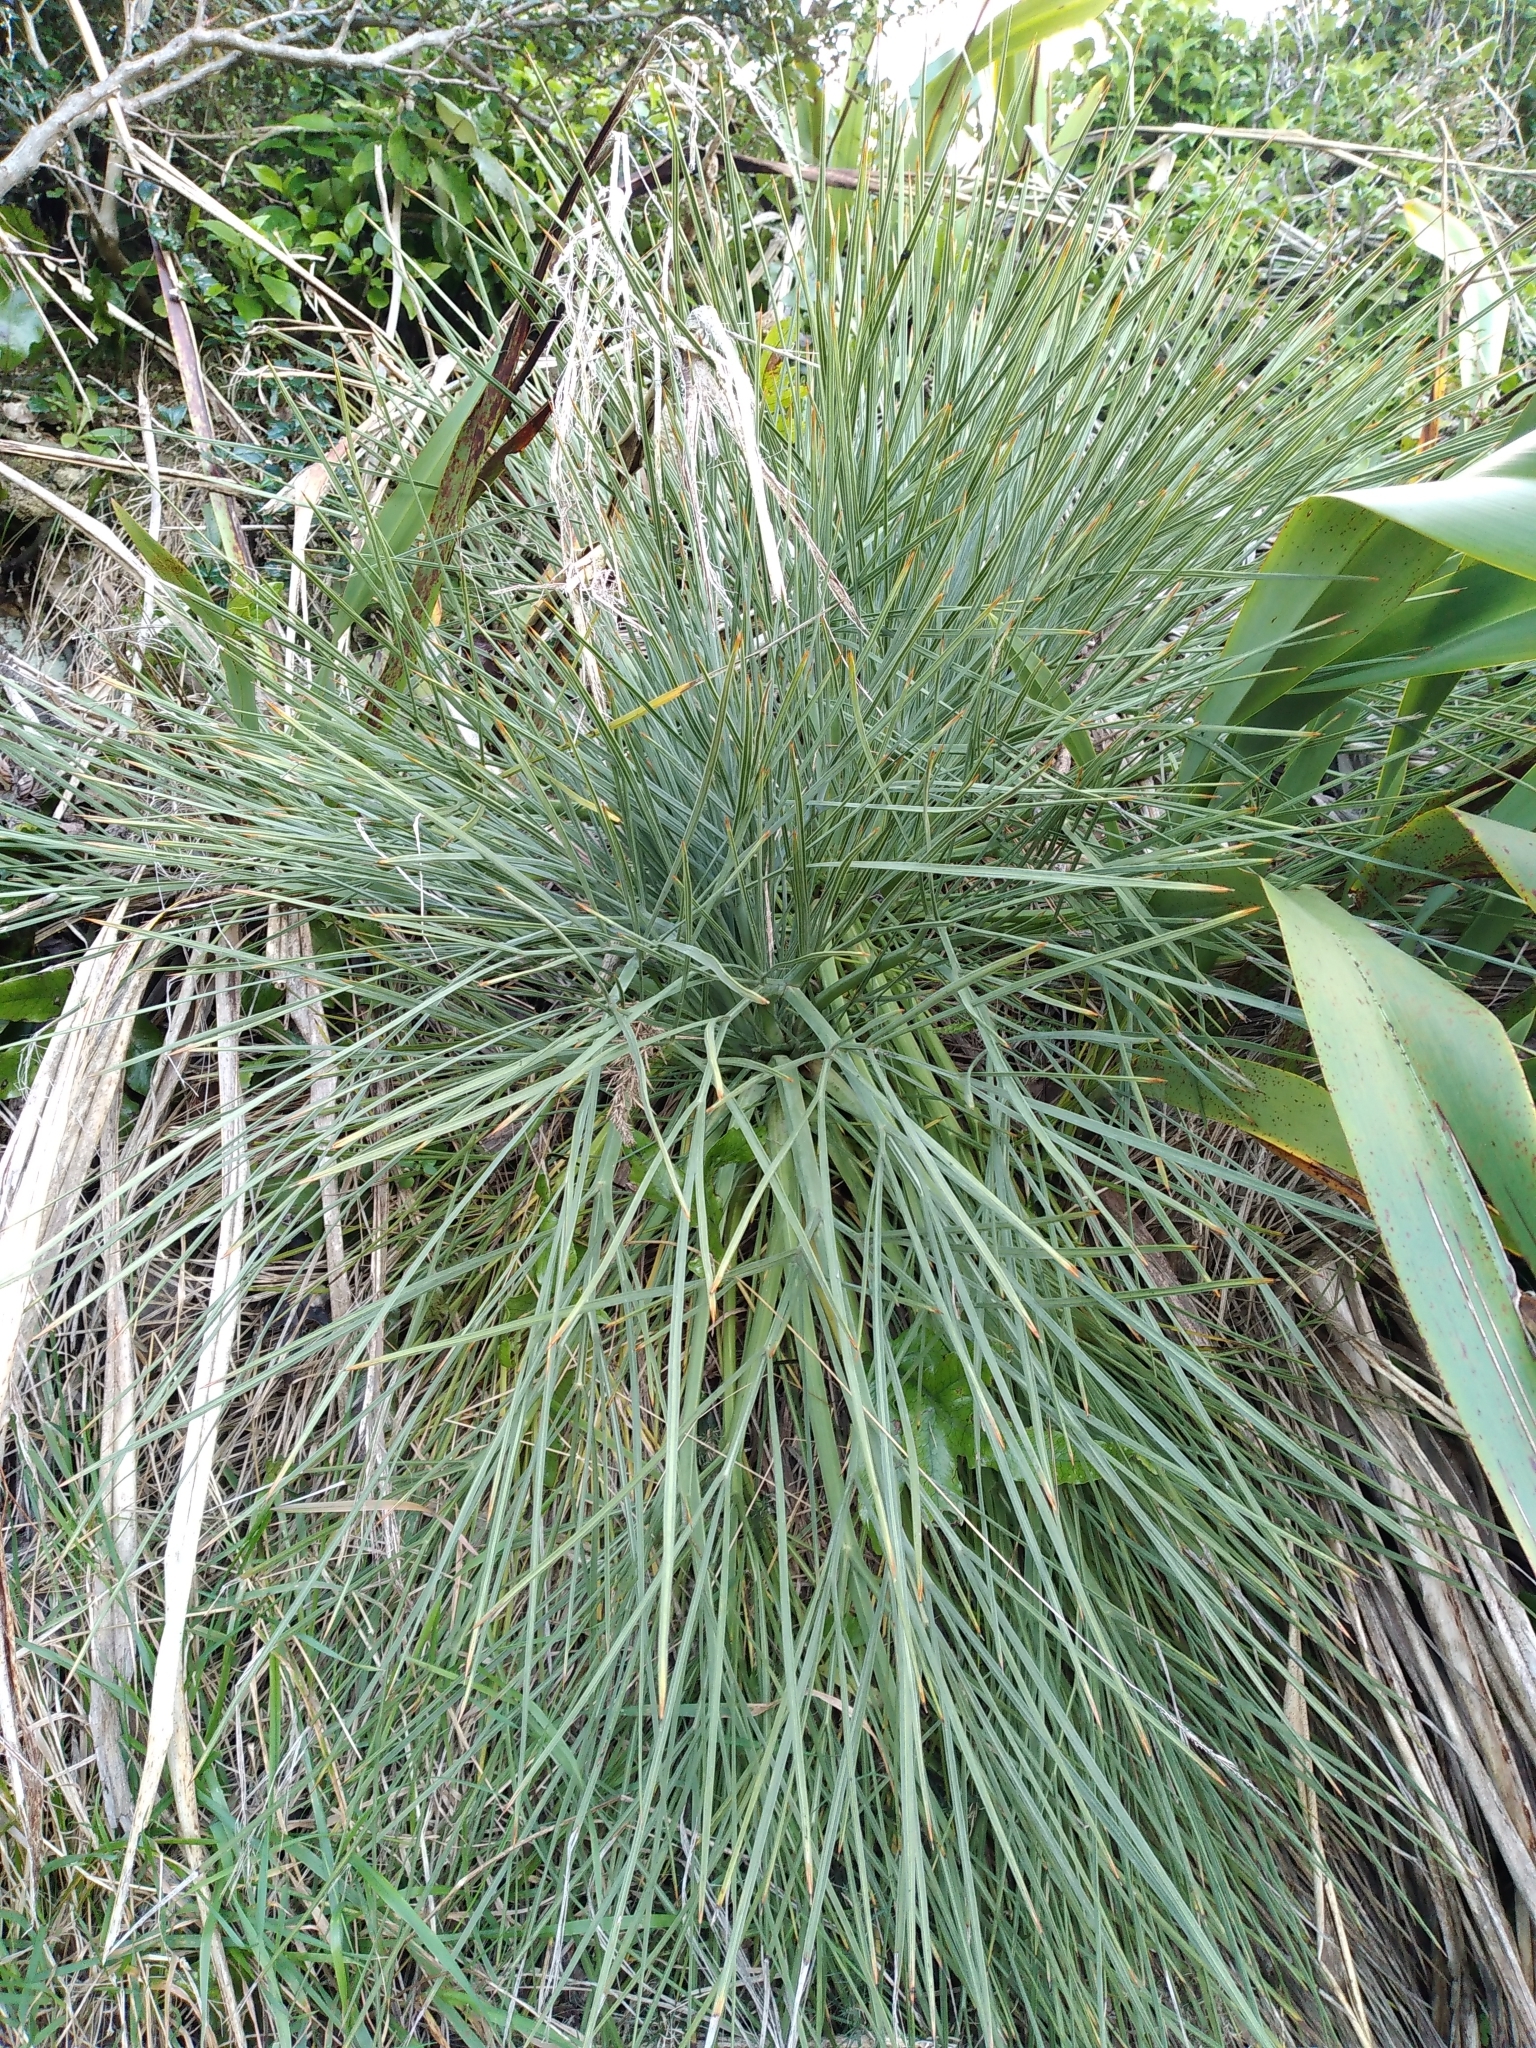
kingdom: Plantae
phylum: Tracheophyta
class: Magnoliopsida
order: Apiales
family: Apiaceae
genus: Aciphylla
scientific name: Aciphylla squarrosa
